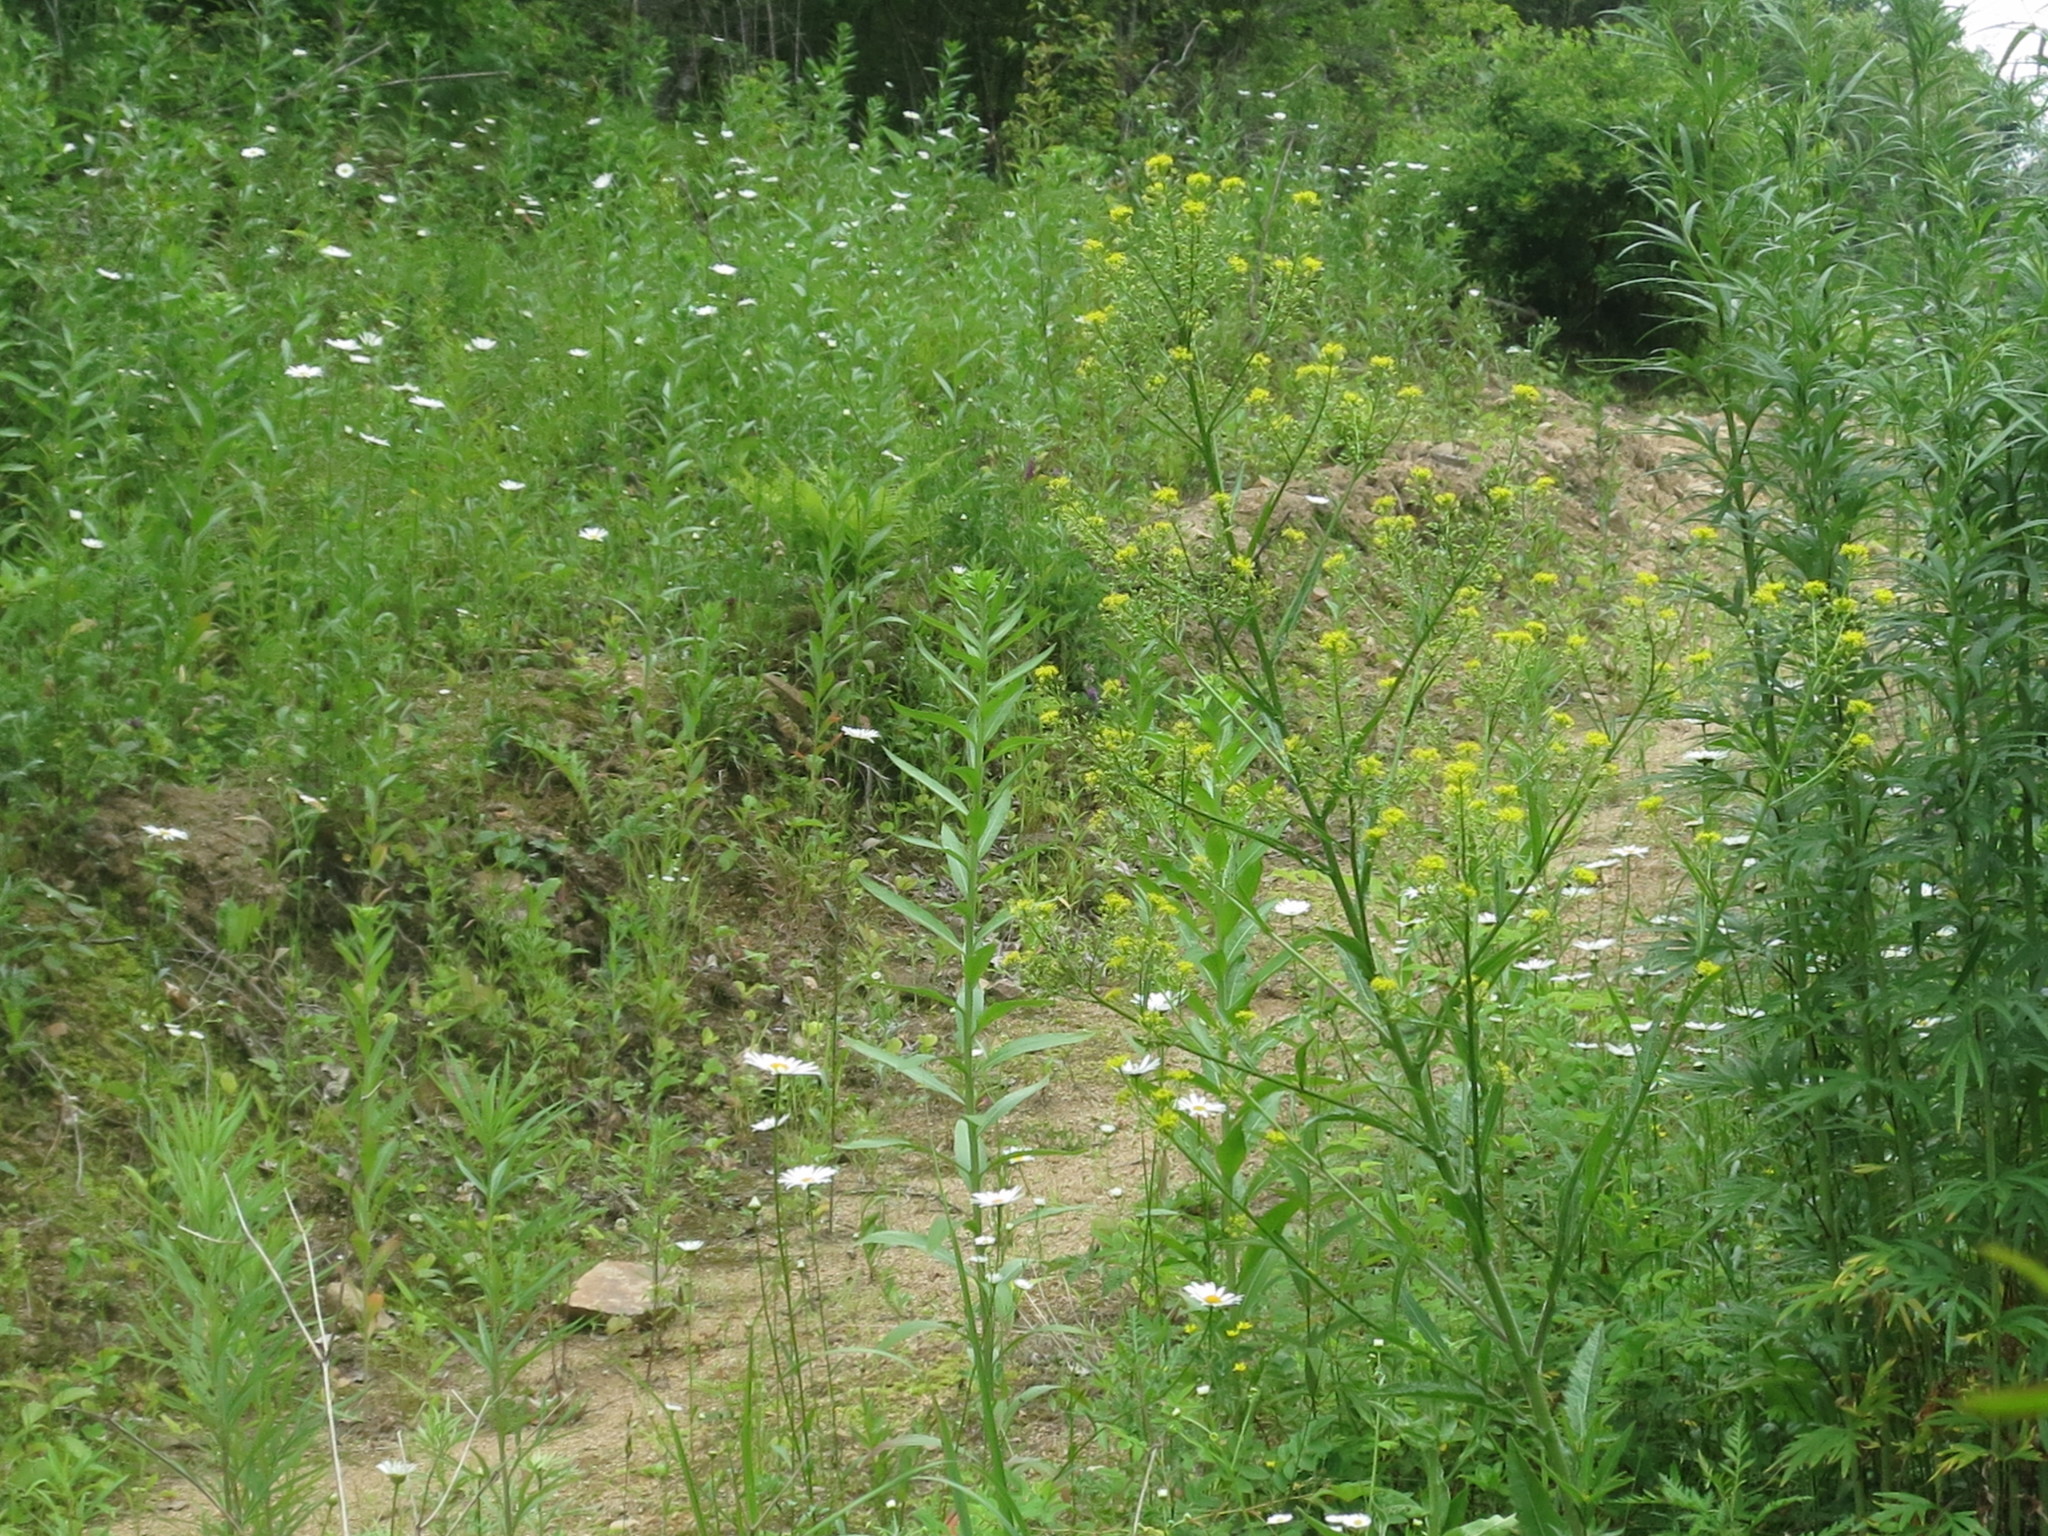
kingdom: Plantae
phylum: Tracheophyta
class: Magnoliopsida
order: Brassicales
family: Brassicaceae
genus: Rorippa
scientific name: Rorippa globosa
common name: Globe yellowcress
